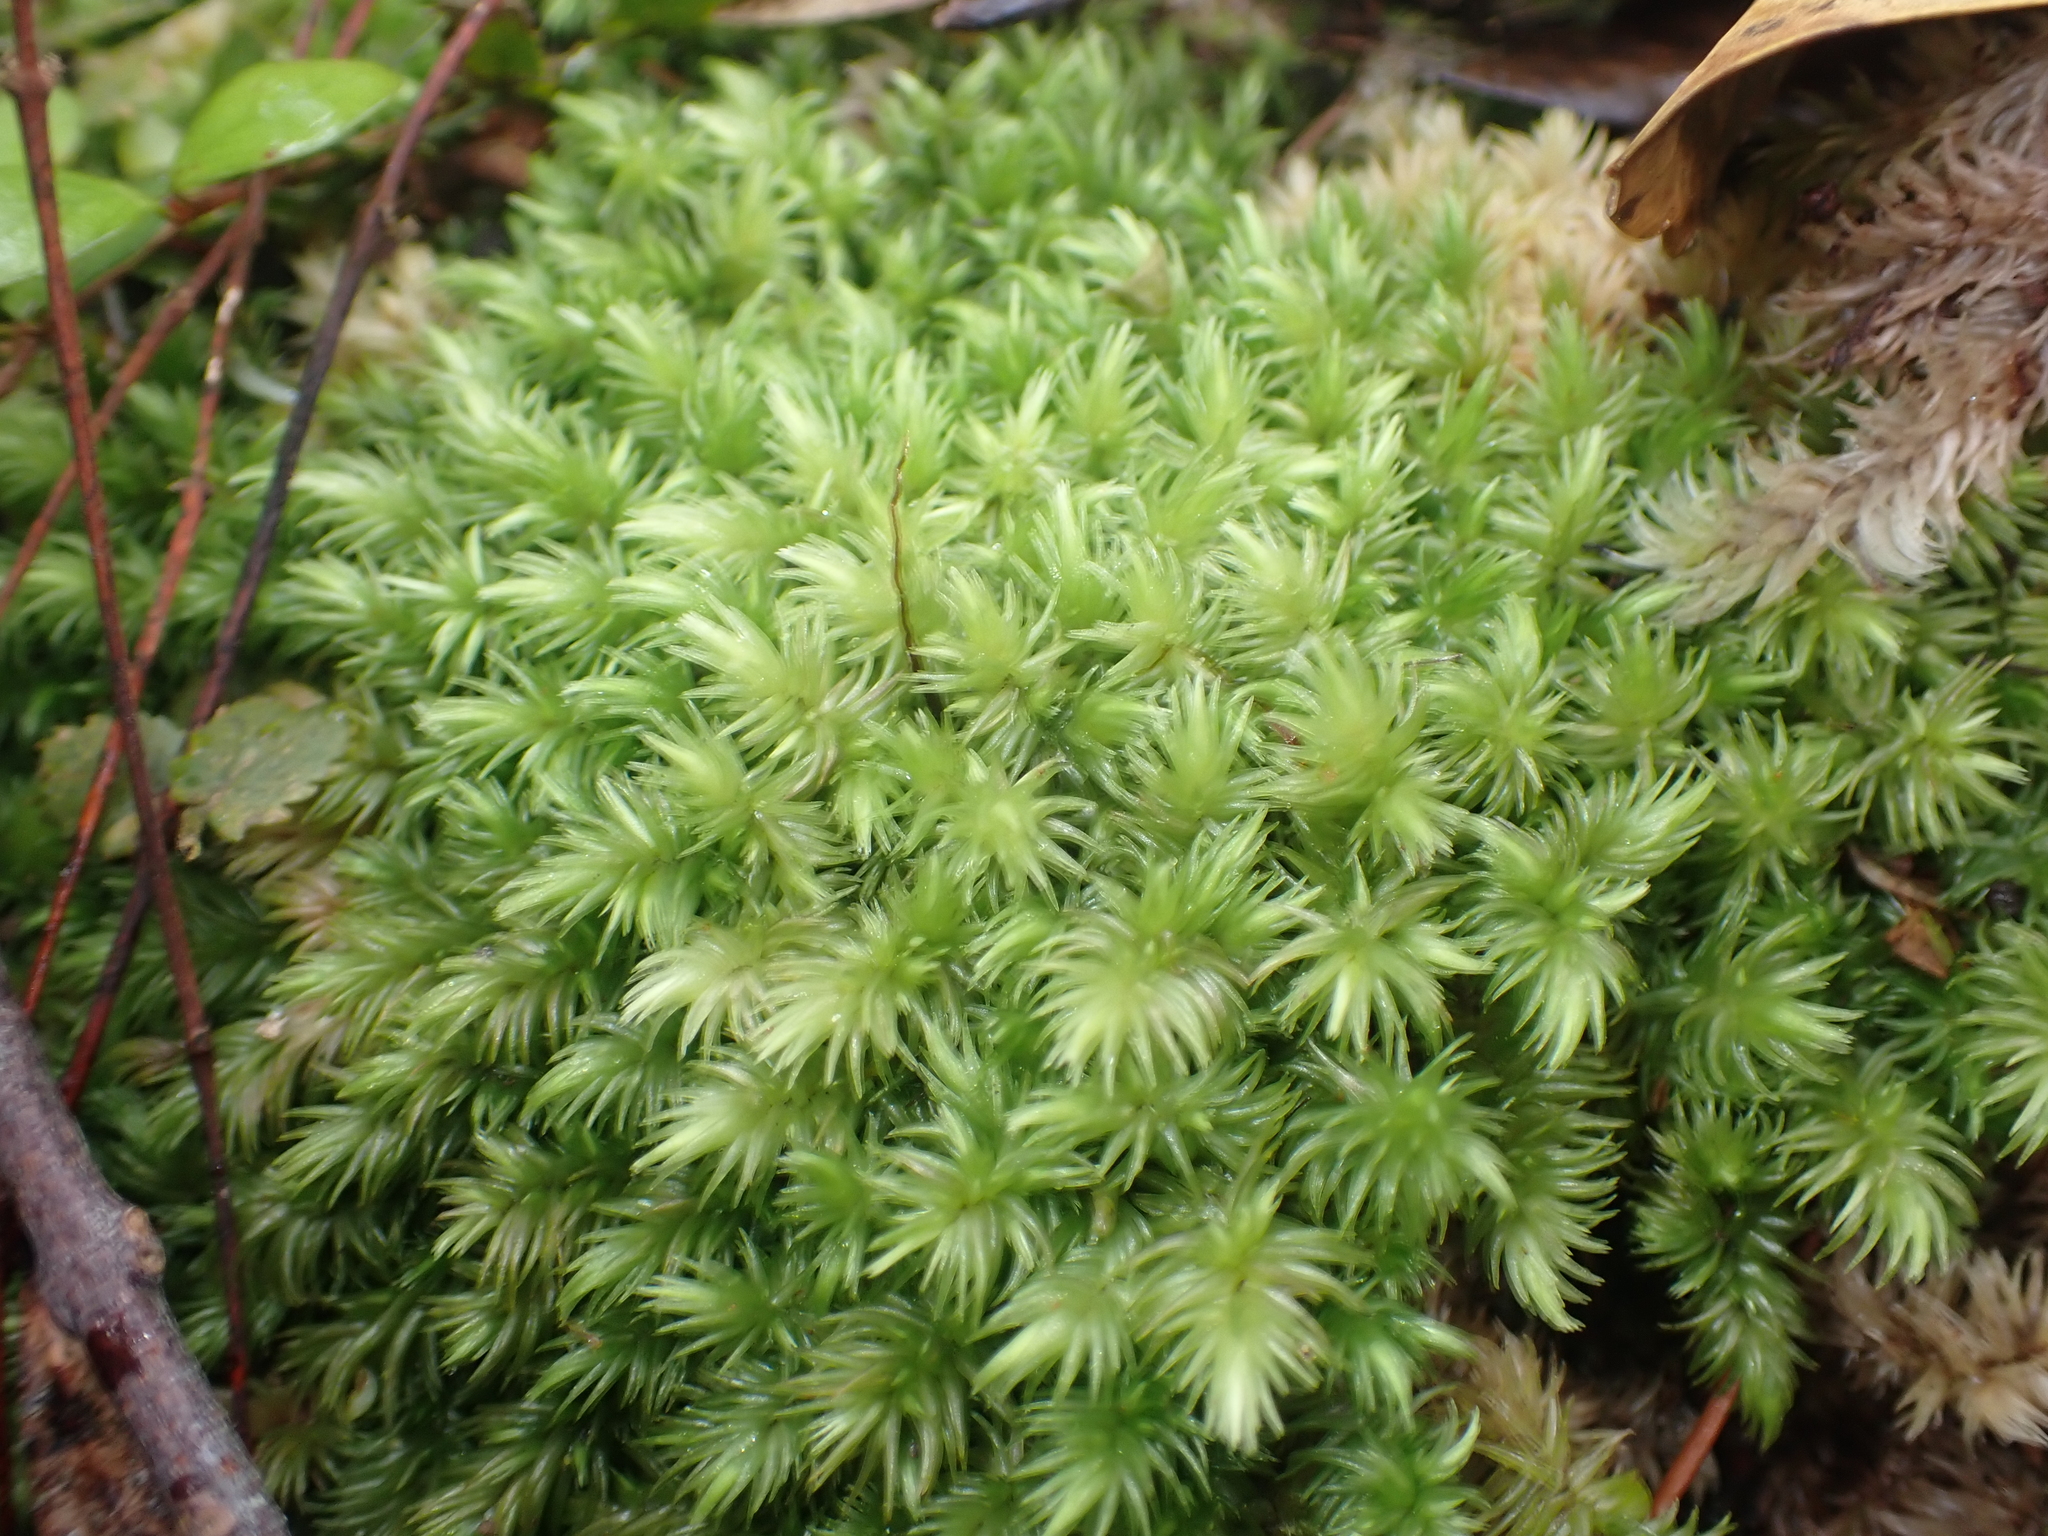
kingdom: Plantae
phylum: Bryophyta
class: Bryopsida
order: Dicranales
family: Leucobryaceae
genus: Leucobryum
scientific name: Leucobryum javense
